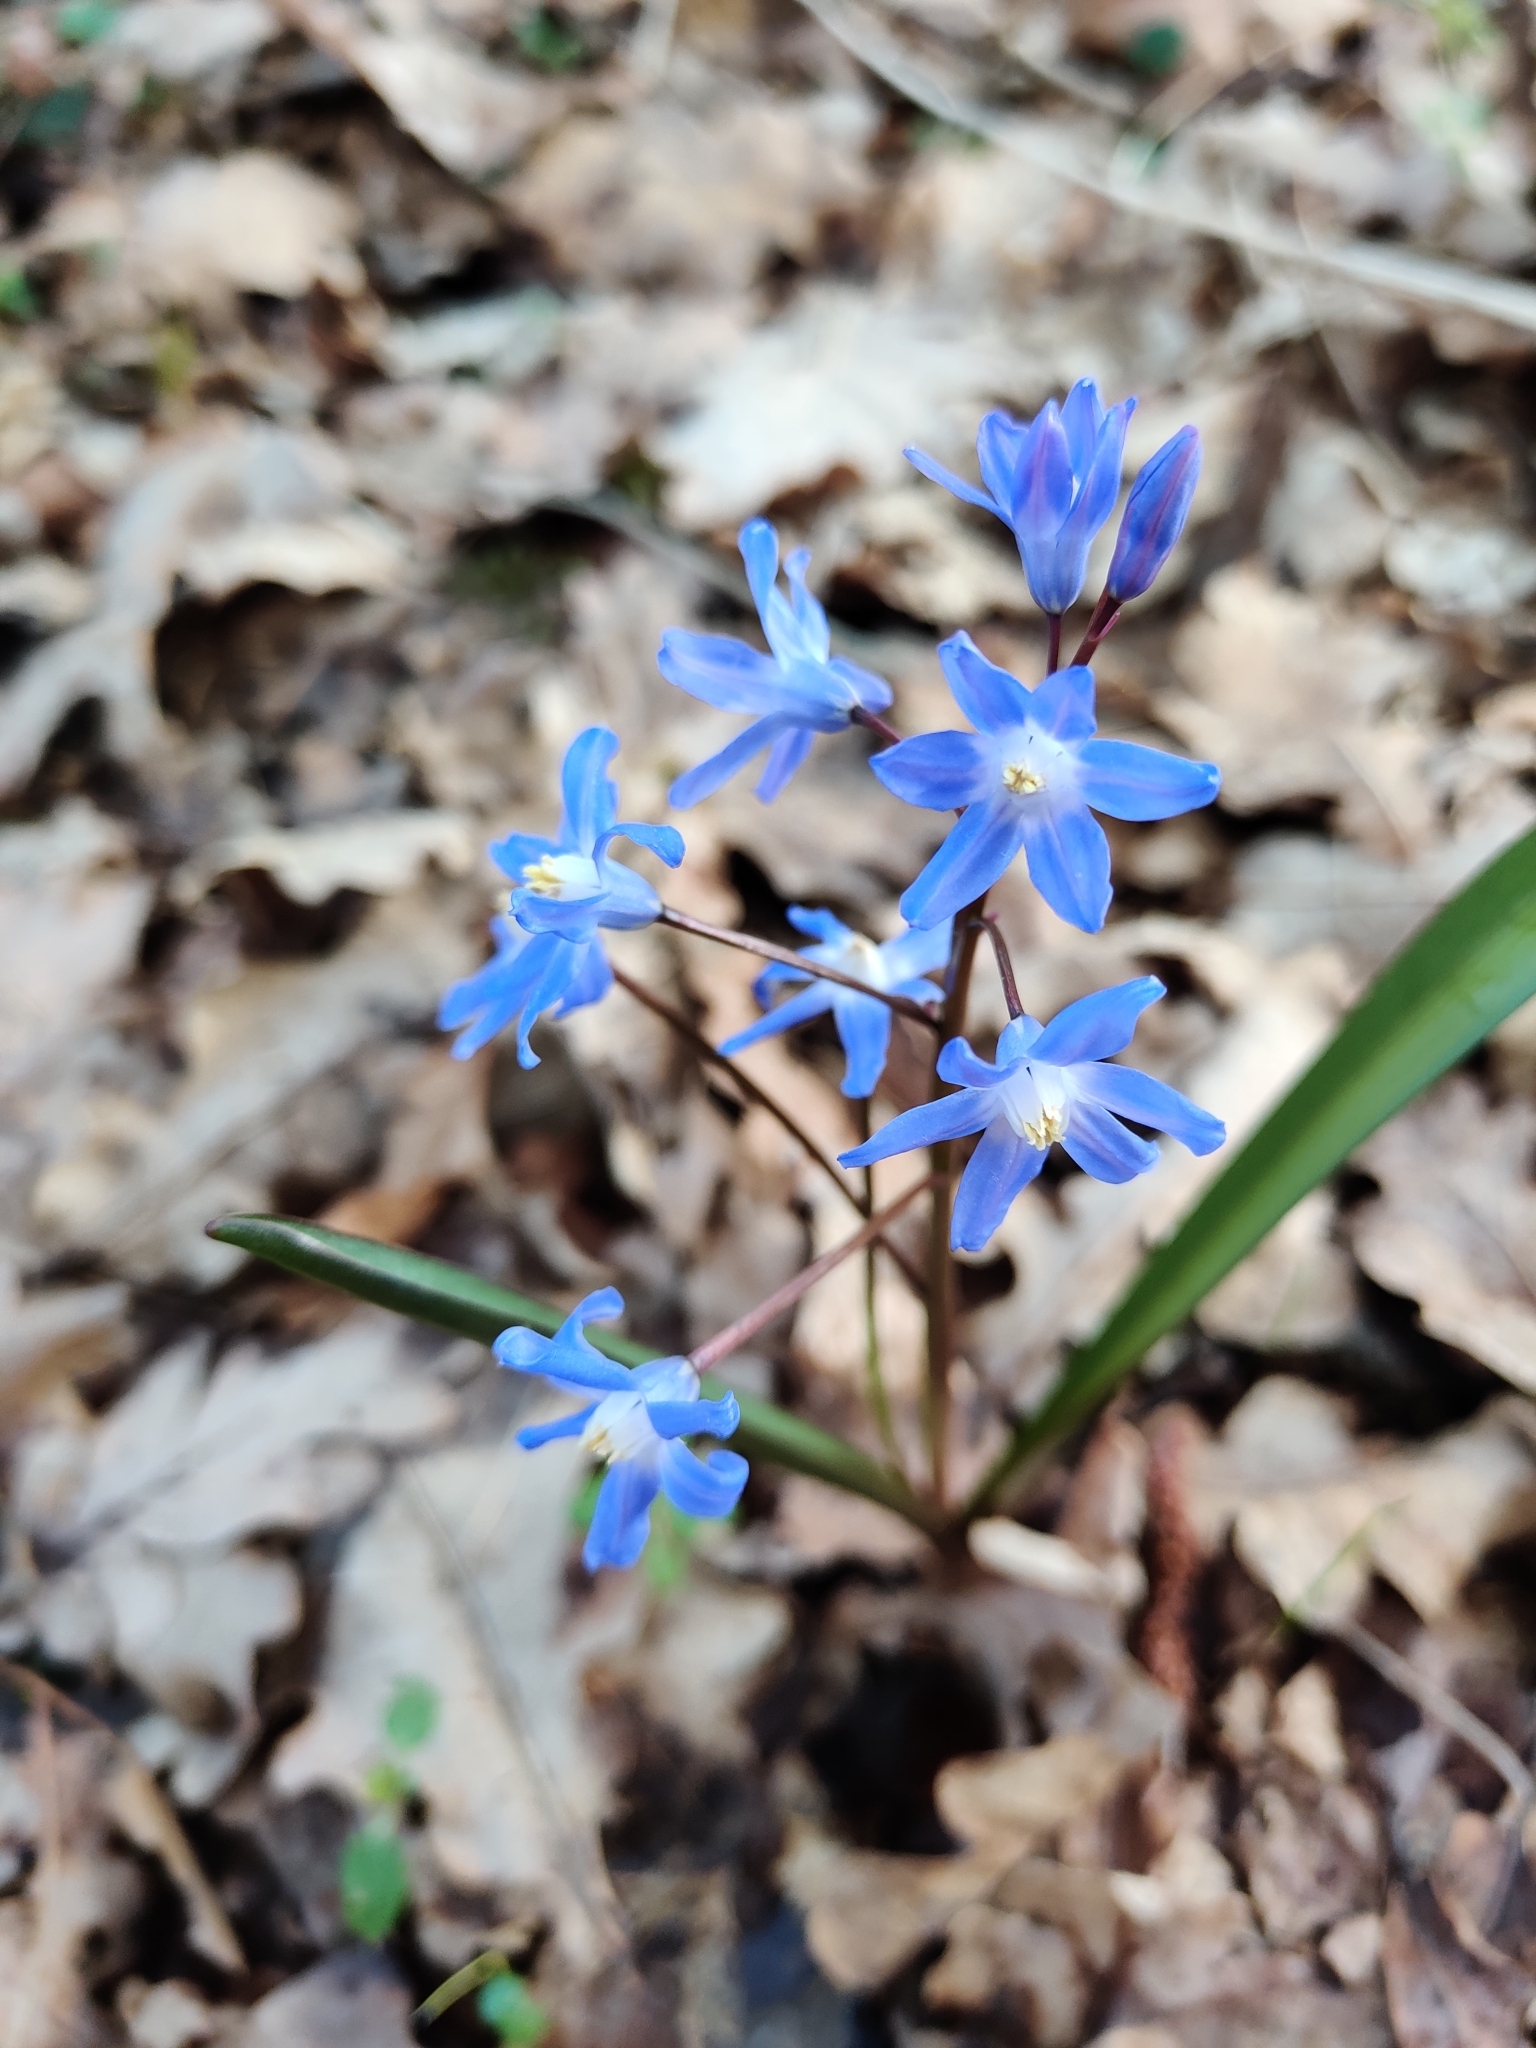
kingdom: Plantae
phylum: Tracheophyta
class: Liliopsida
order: Asparagales
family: Asparagaceae
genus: Scilla
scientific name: Scilla forbesii
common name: Glory-of-the-snow
